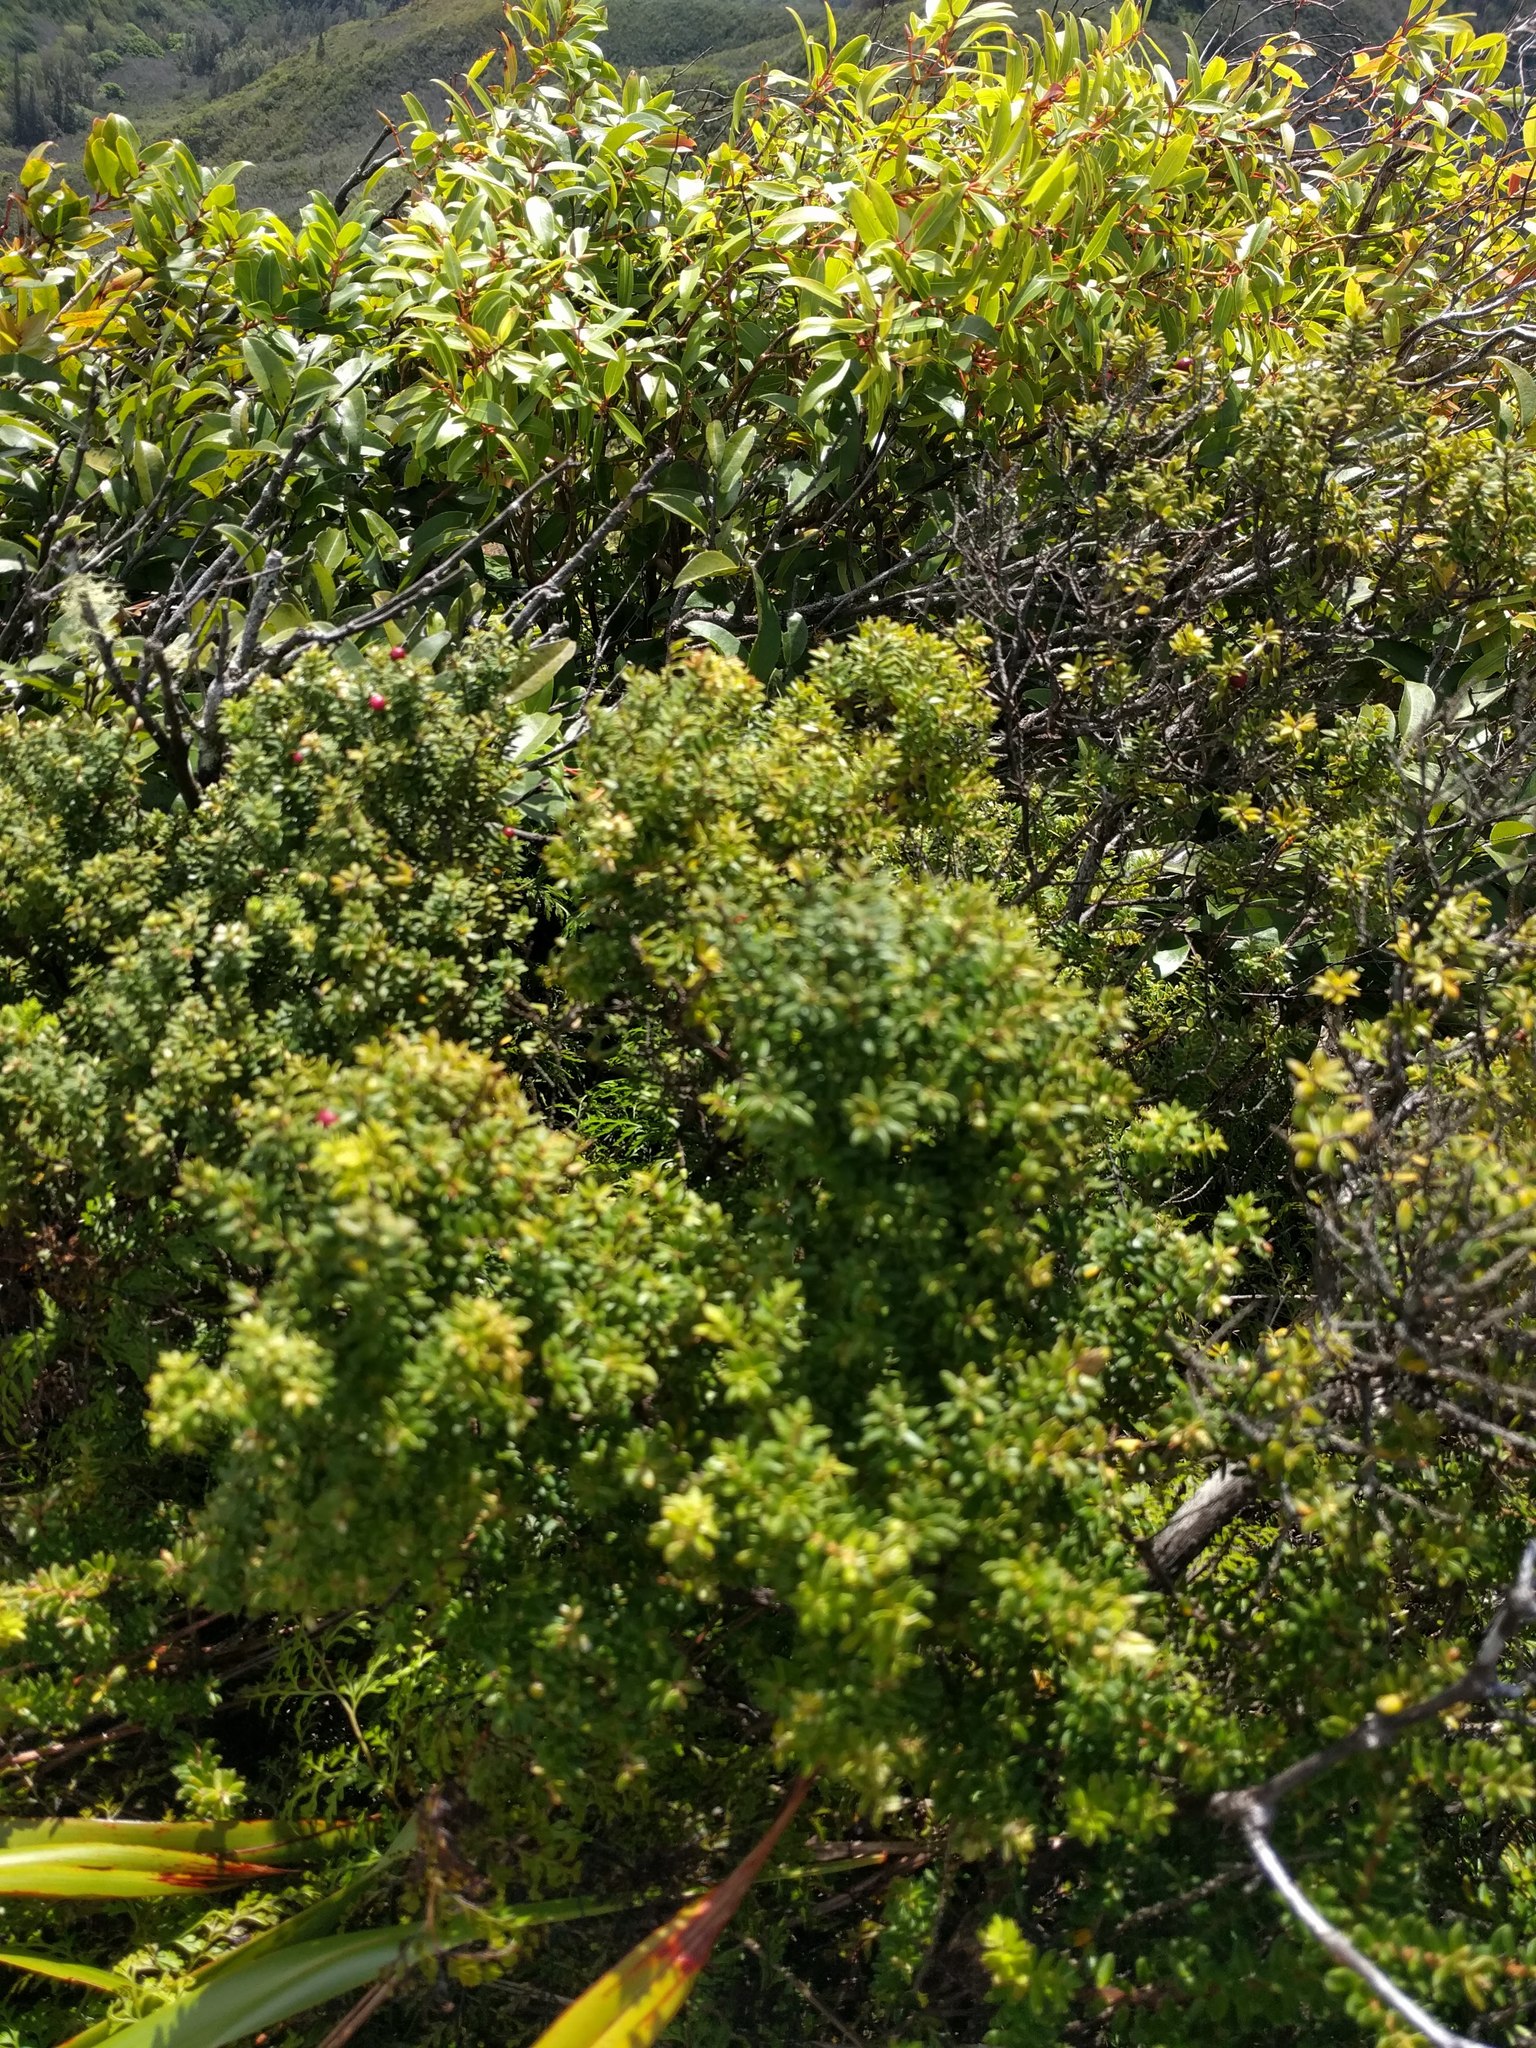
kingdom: Plantae
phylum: Tracheophyta
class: Magnoliopsida
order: Ericales
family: Ericaceae
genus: Leptecophylla
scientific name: Leptecophylla tameiameiae
